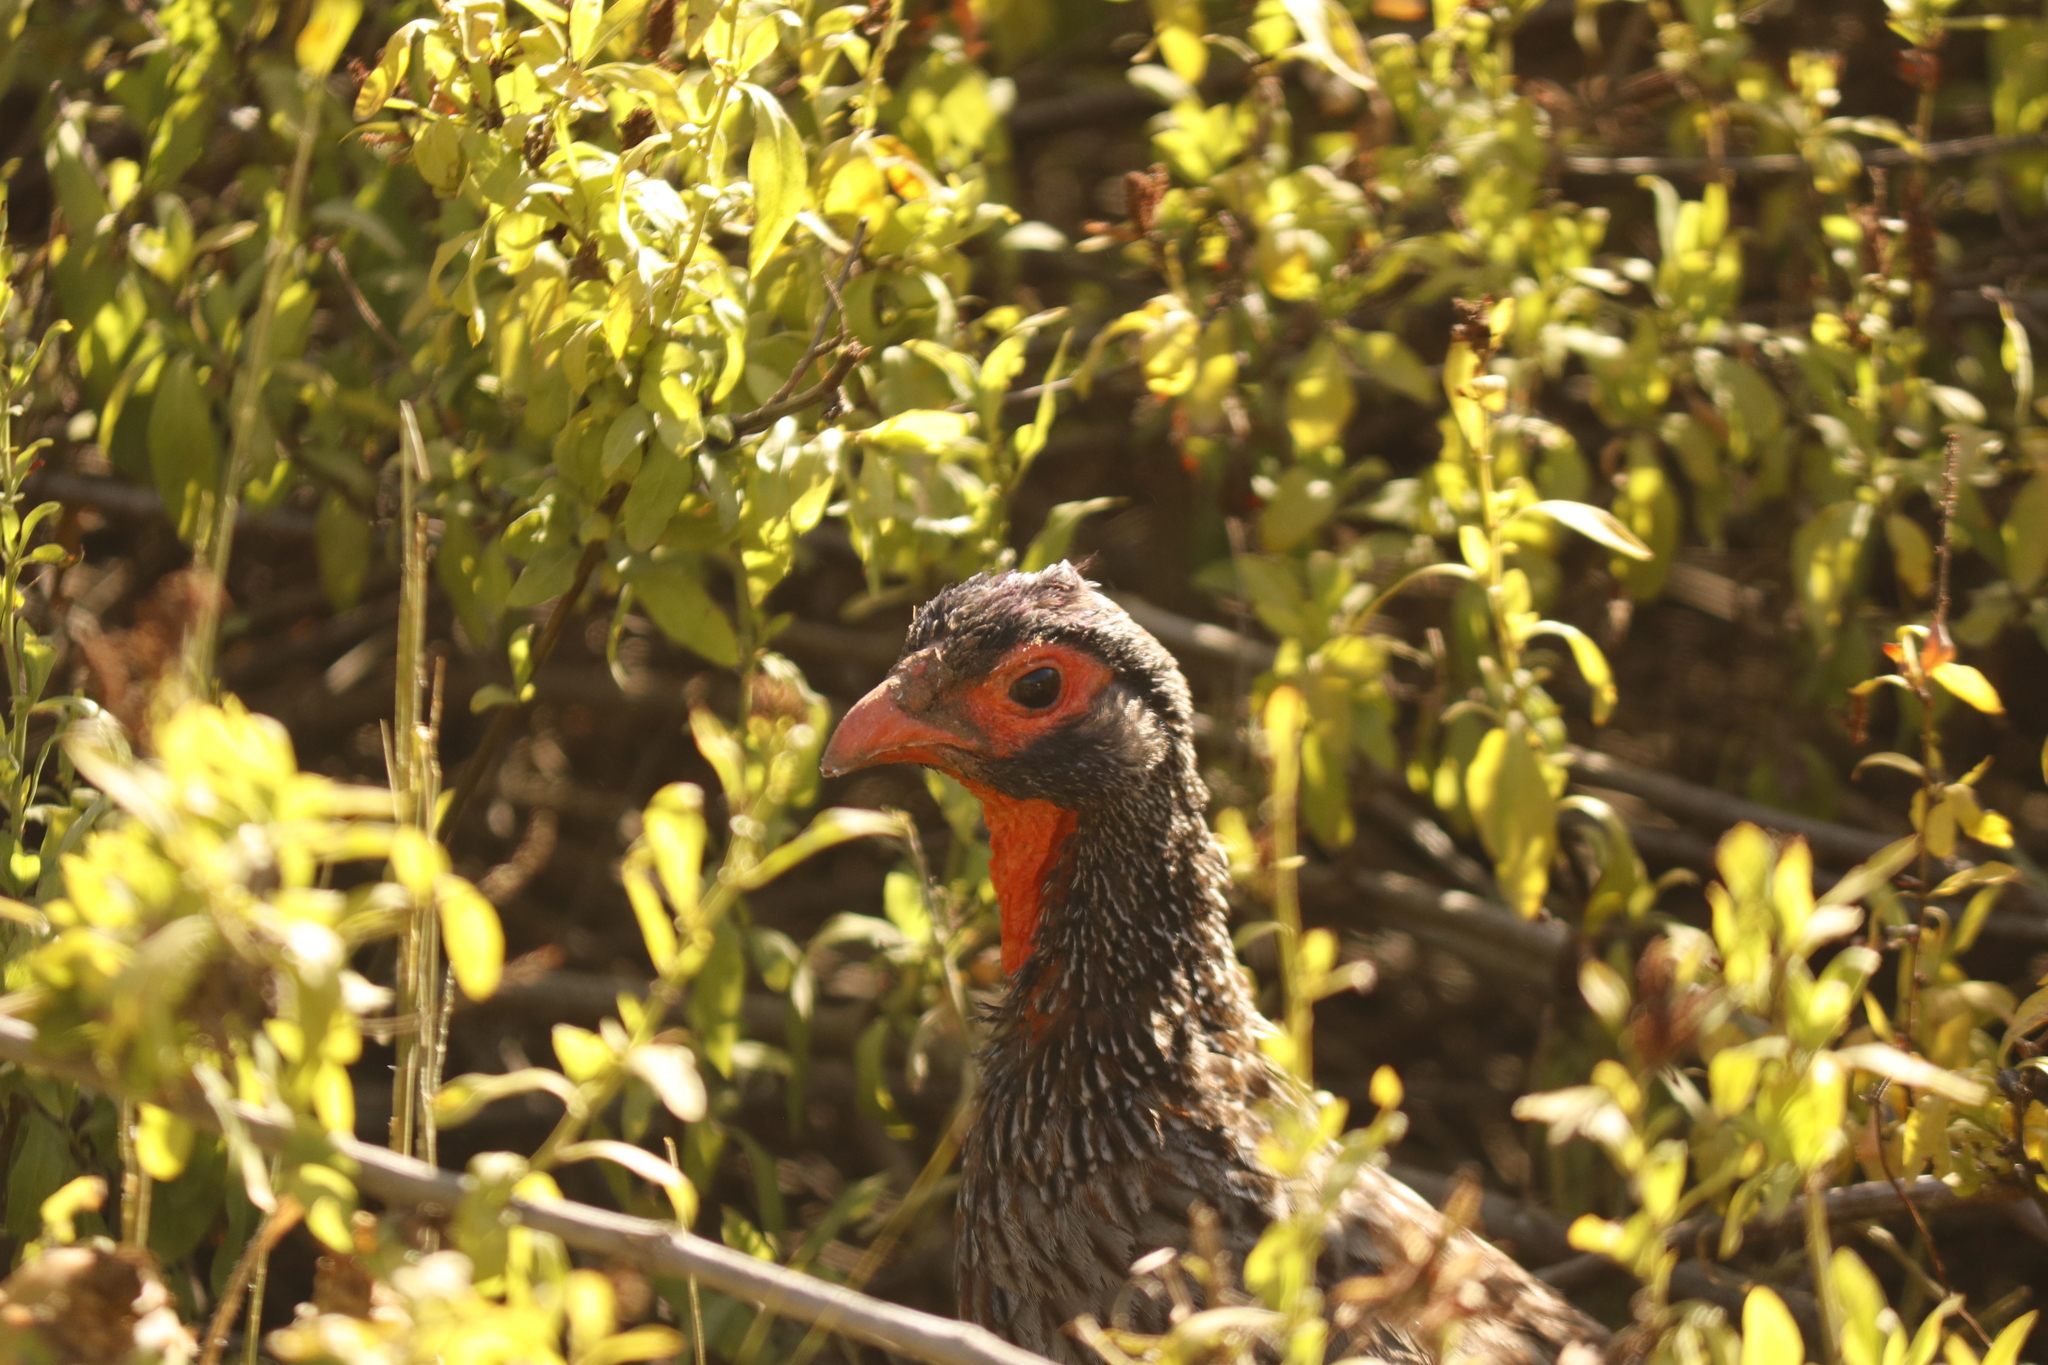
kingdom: Animalia
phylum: Chordata
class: Aves
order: Galliformes
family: Phasianidae
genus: Pternistis
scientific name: Pternistis afer
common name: Red-necked spurfowl
